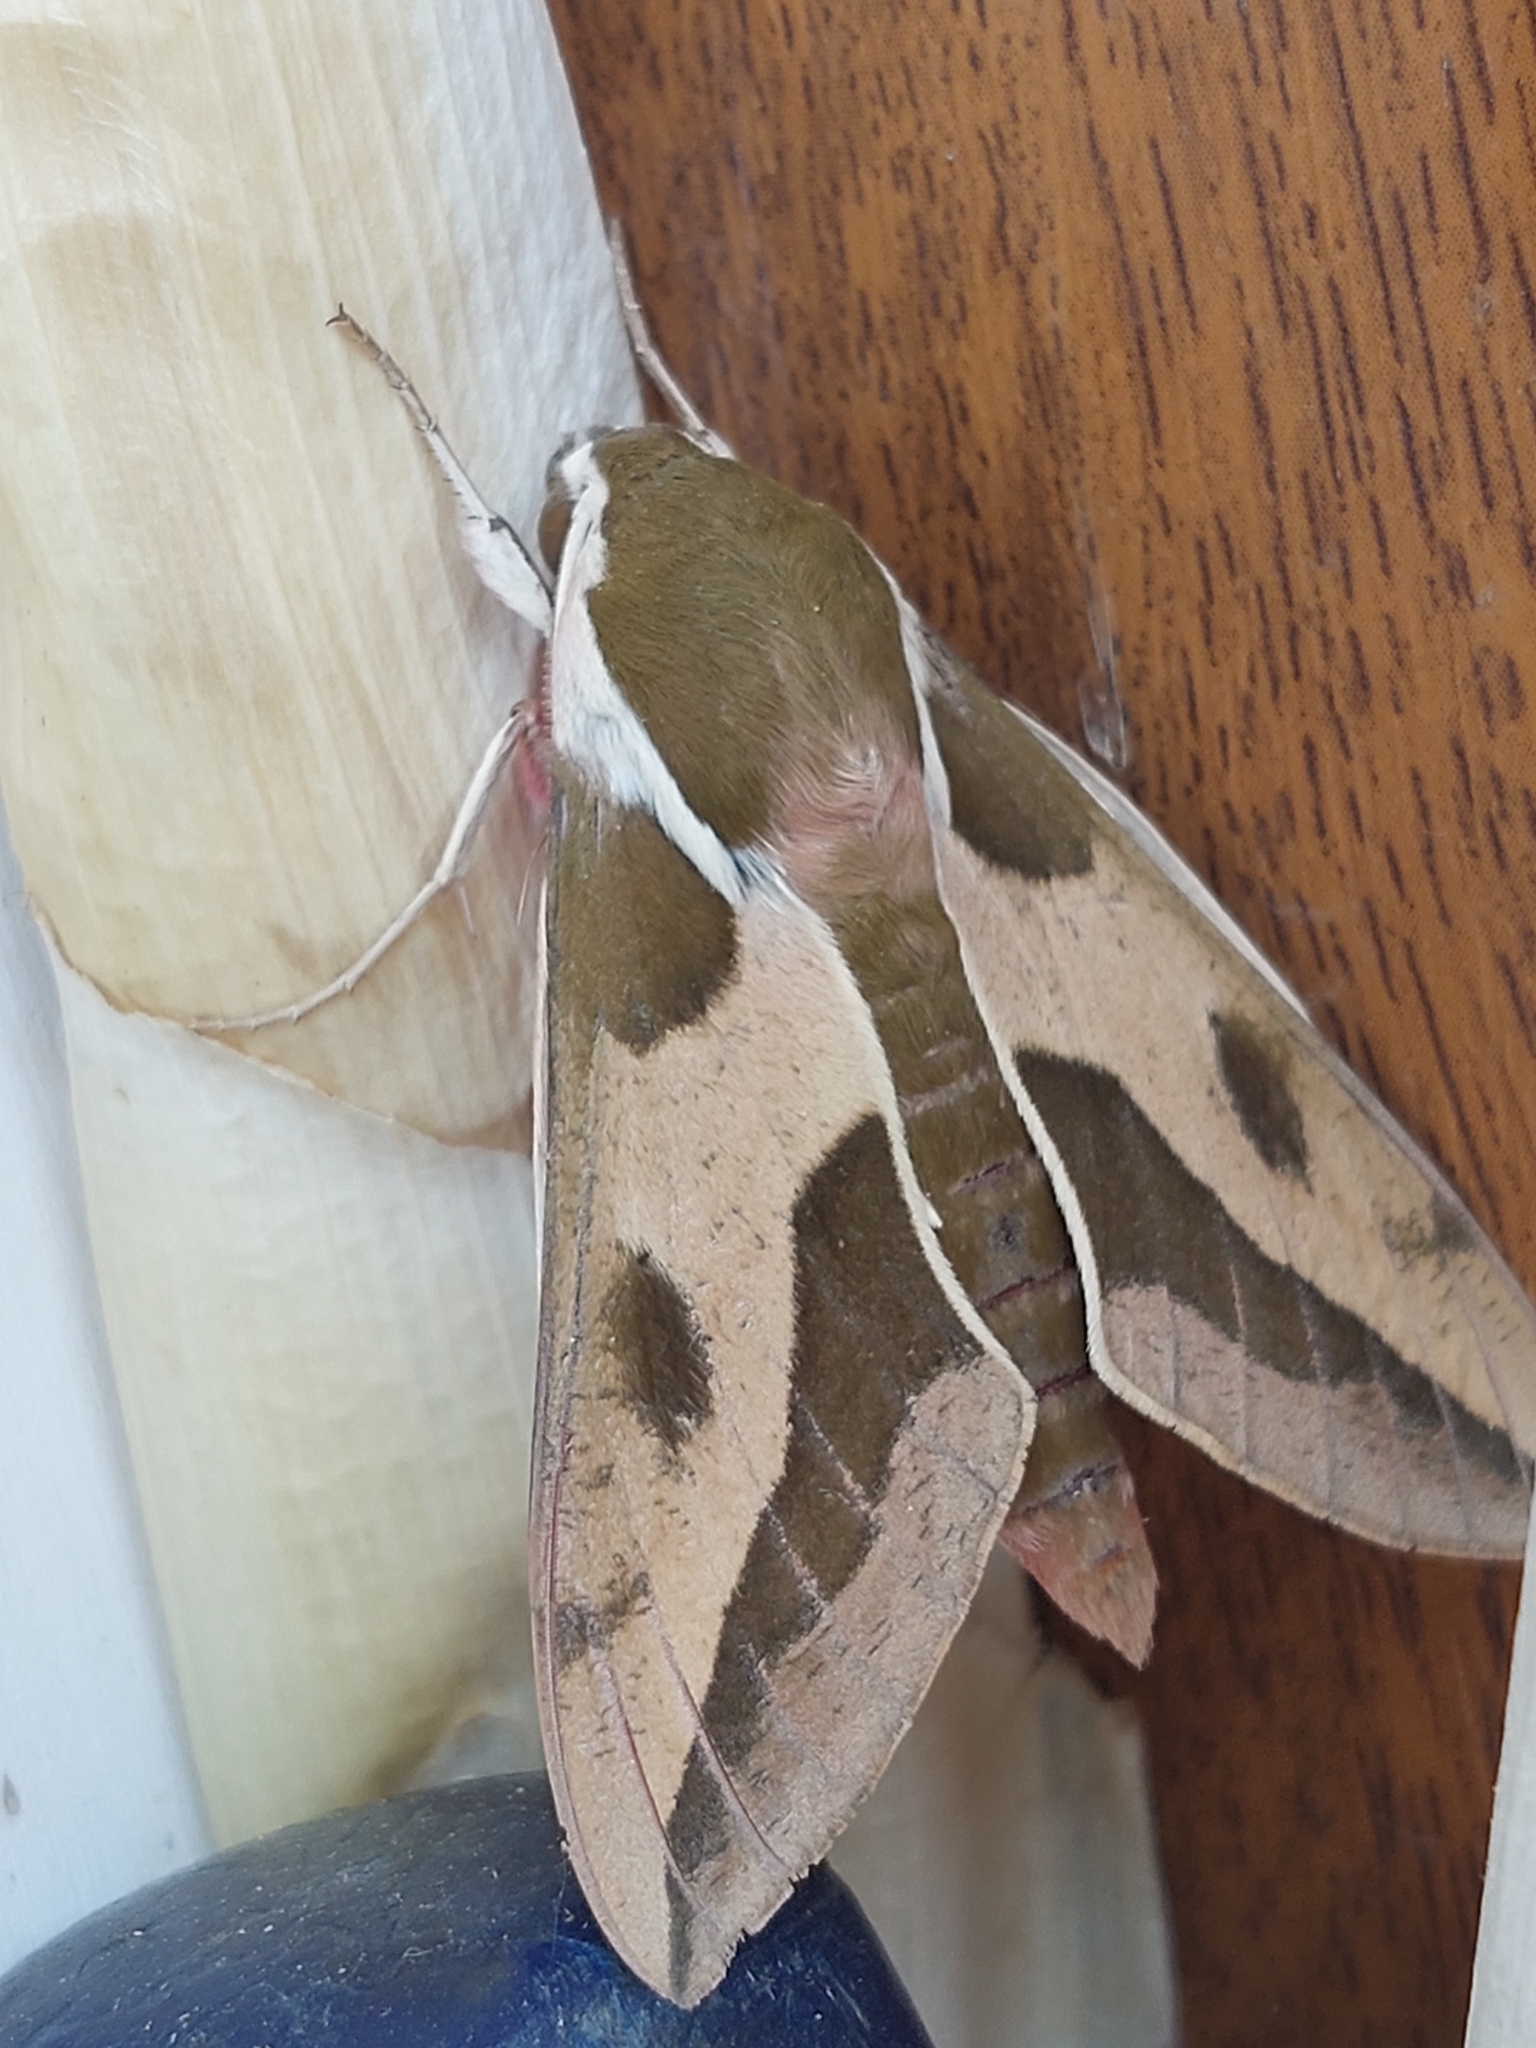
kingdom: Animalia
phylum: Arthropoda
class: Insecta
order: Lepidoptera
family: Sphingidae
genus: Hyles
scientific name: Hyles euphorbiae
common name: Spurge hawk-moth
